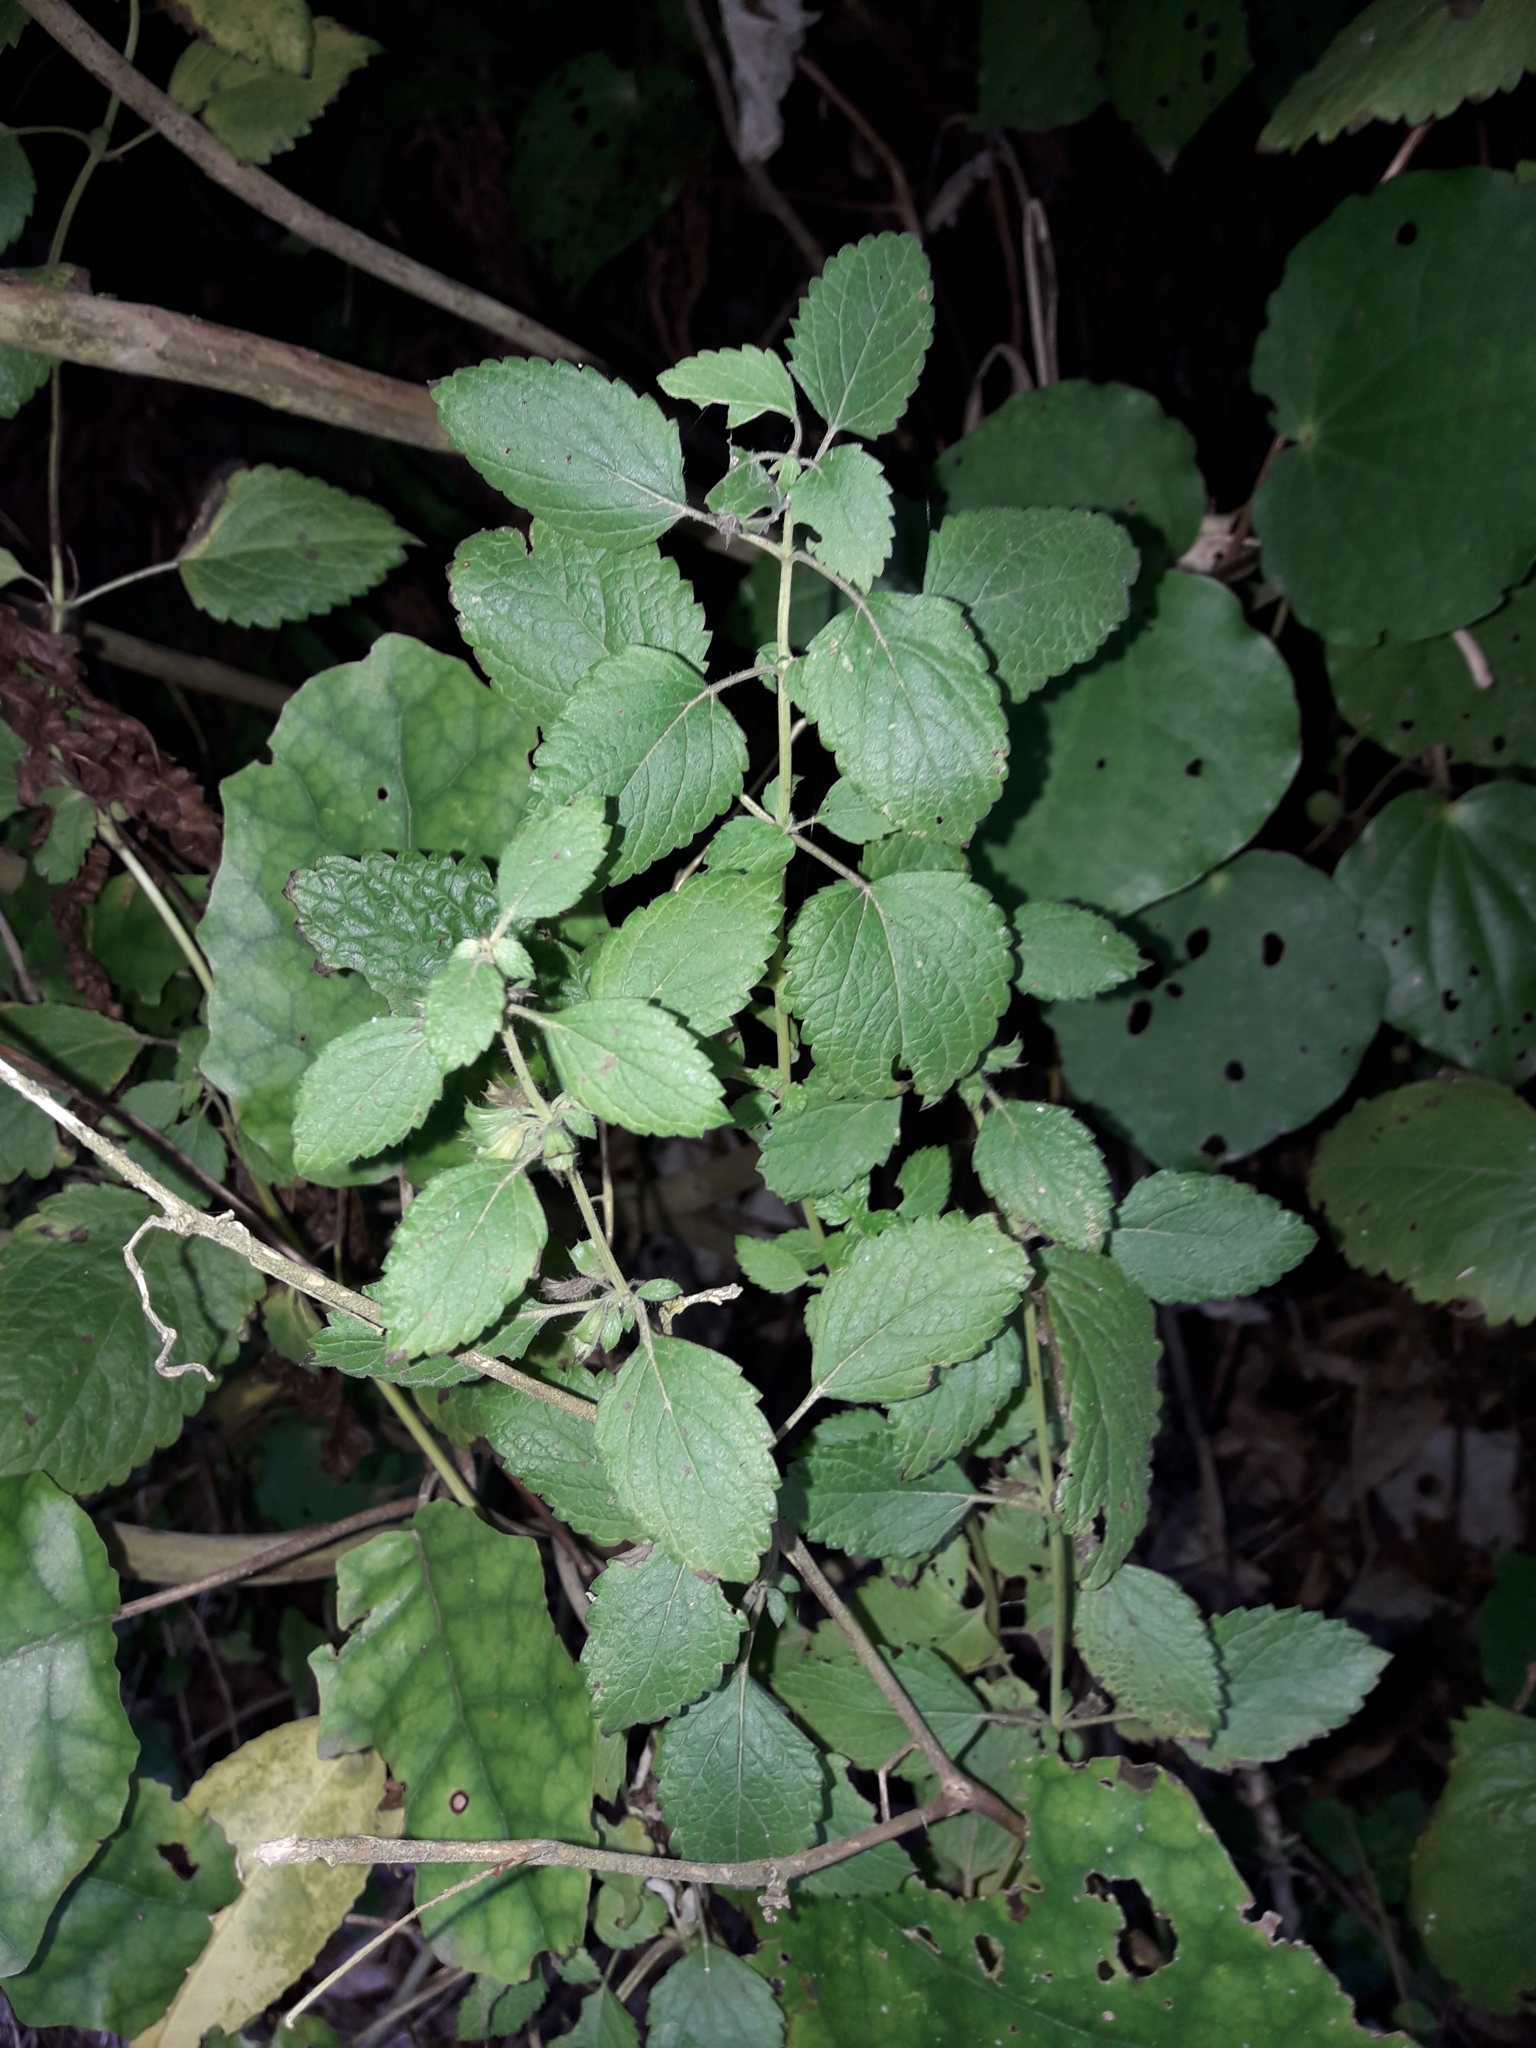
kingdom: Plantae
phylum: Tracheophyta
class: Magnoliopsida
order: Lamiales
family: Lamiaceae
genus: Melissa
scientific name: Melissa officinalis
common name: Balm
